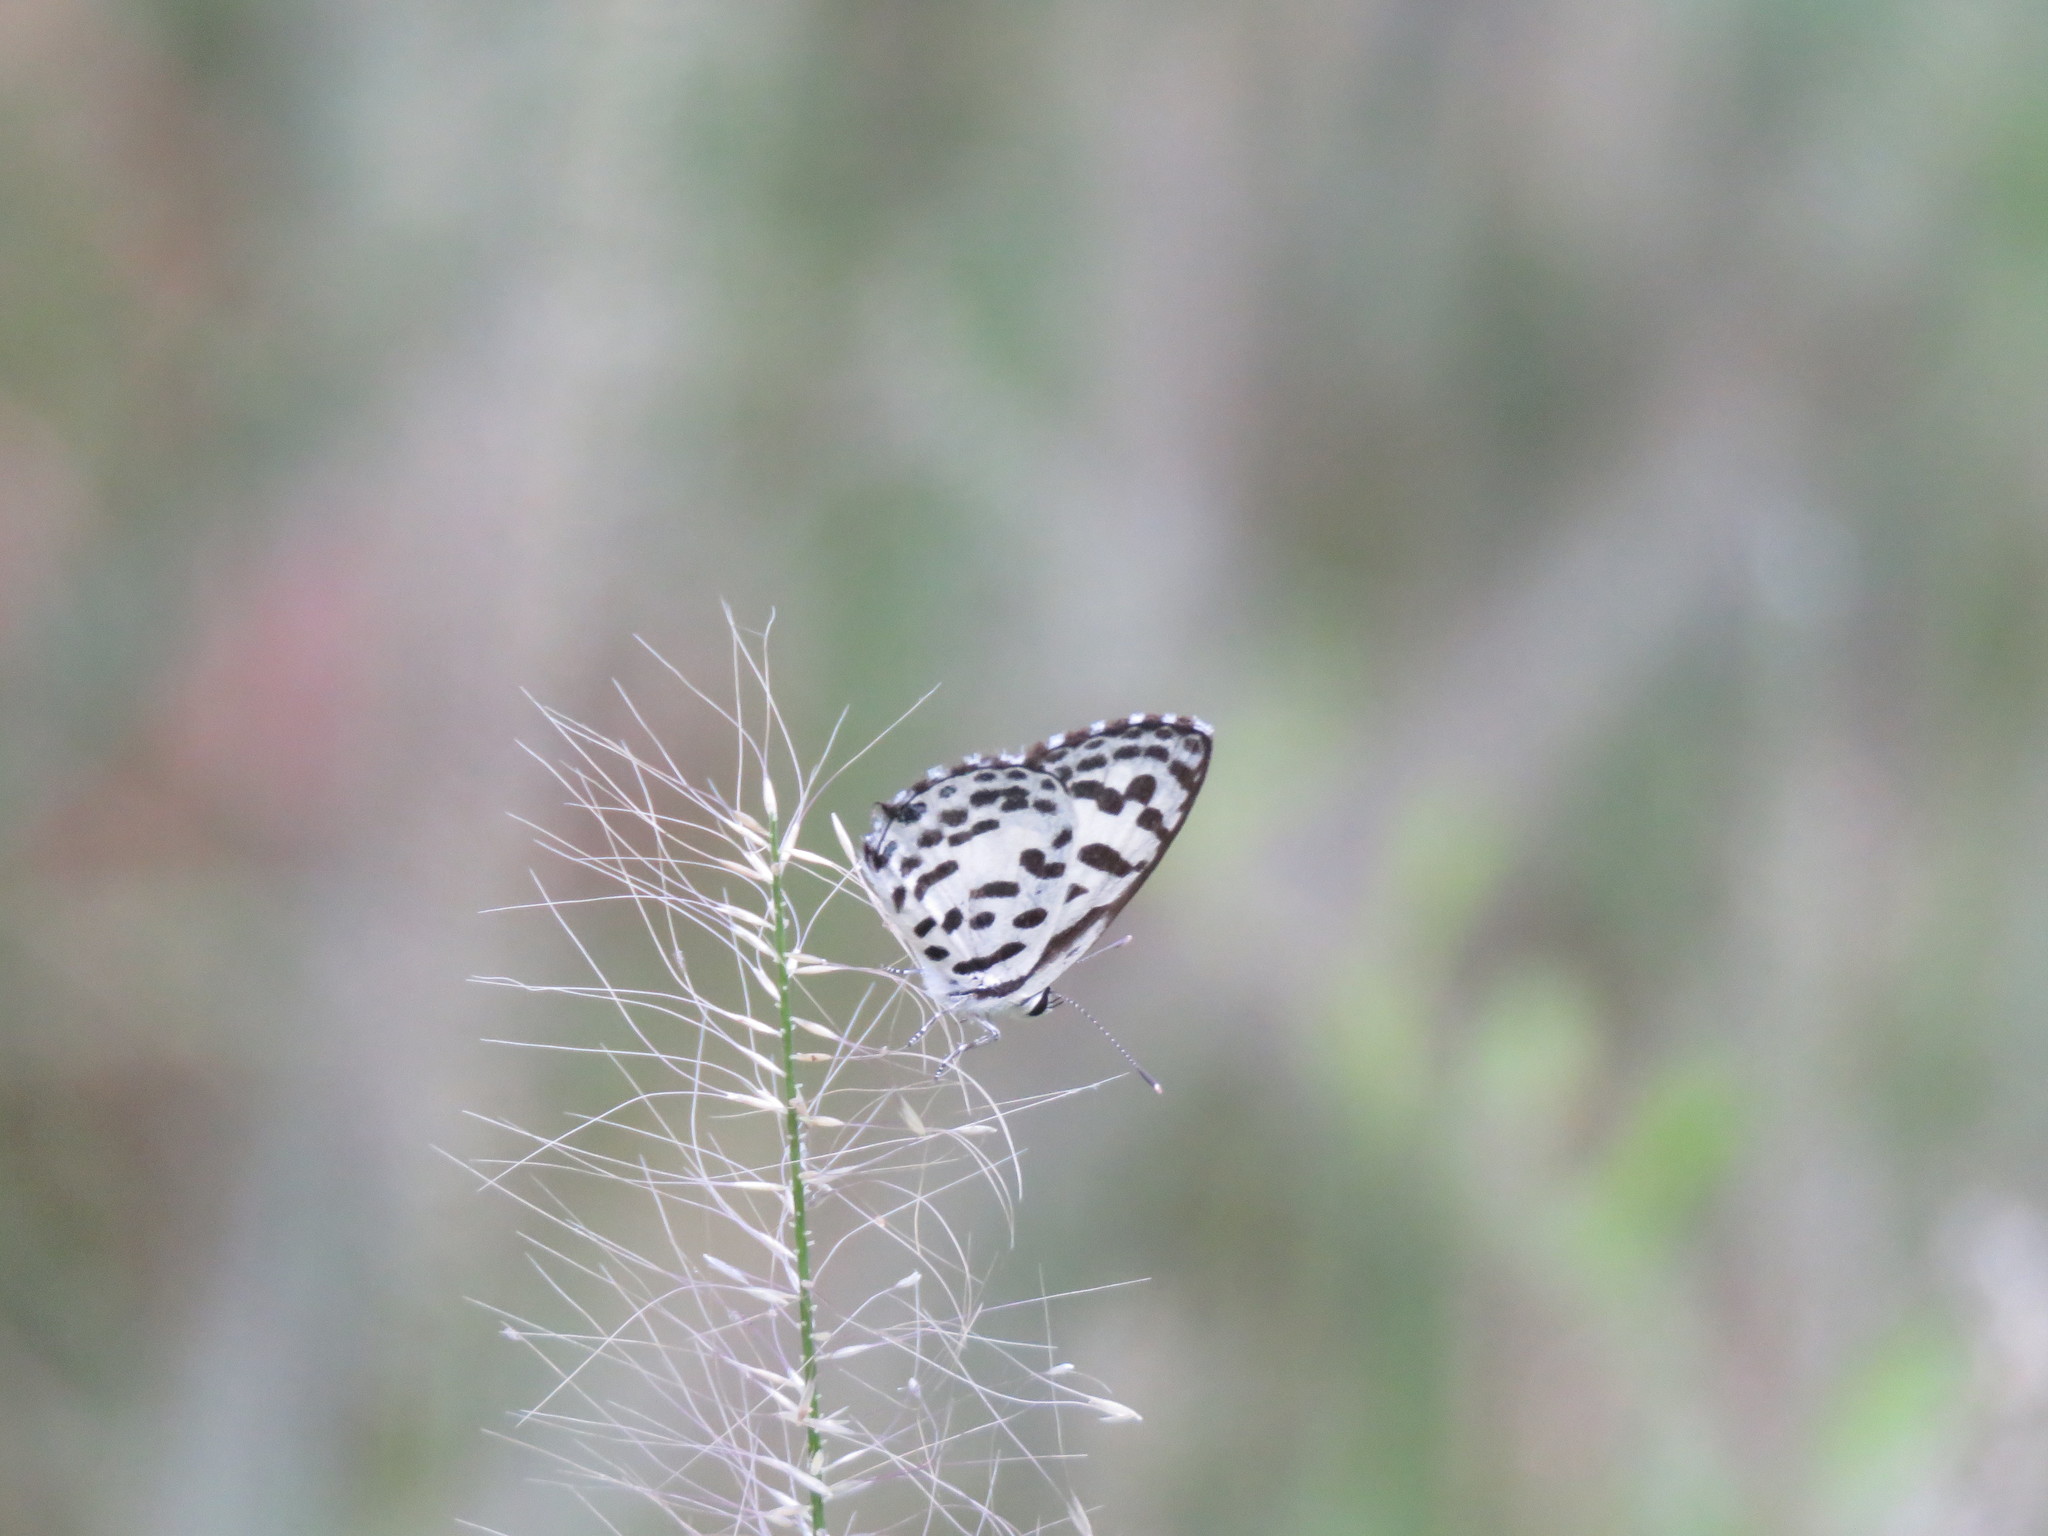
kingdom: Animalia
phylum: Arthropoda
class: Insecta
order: Lepidoptera
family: Lycaenidae
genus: Castalius
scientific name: Castalius rosimon
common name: Common pierrot
